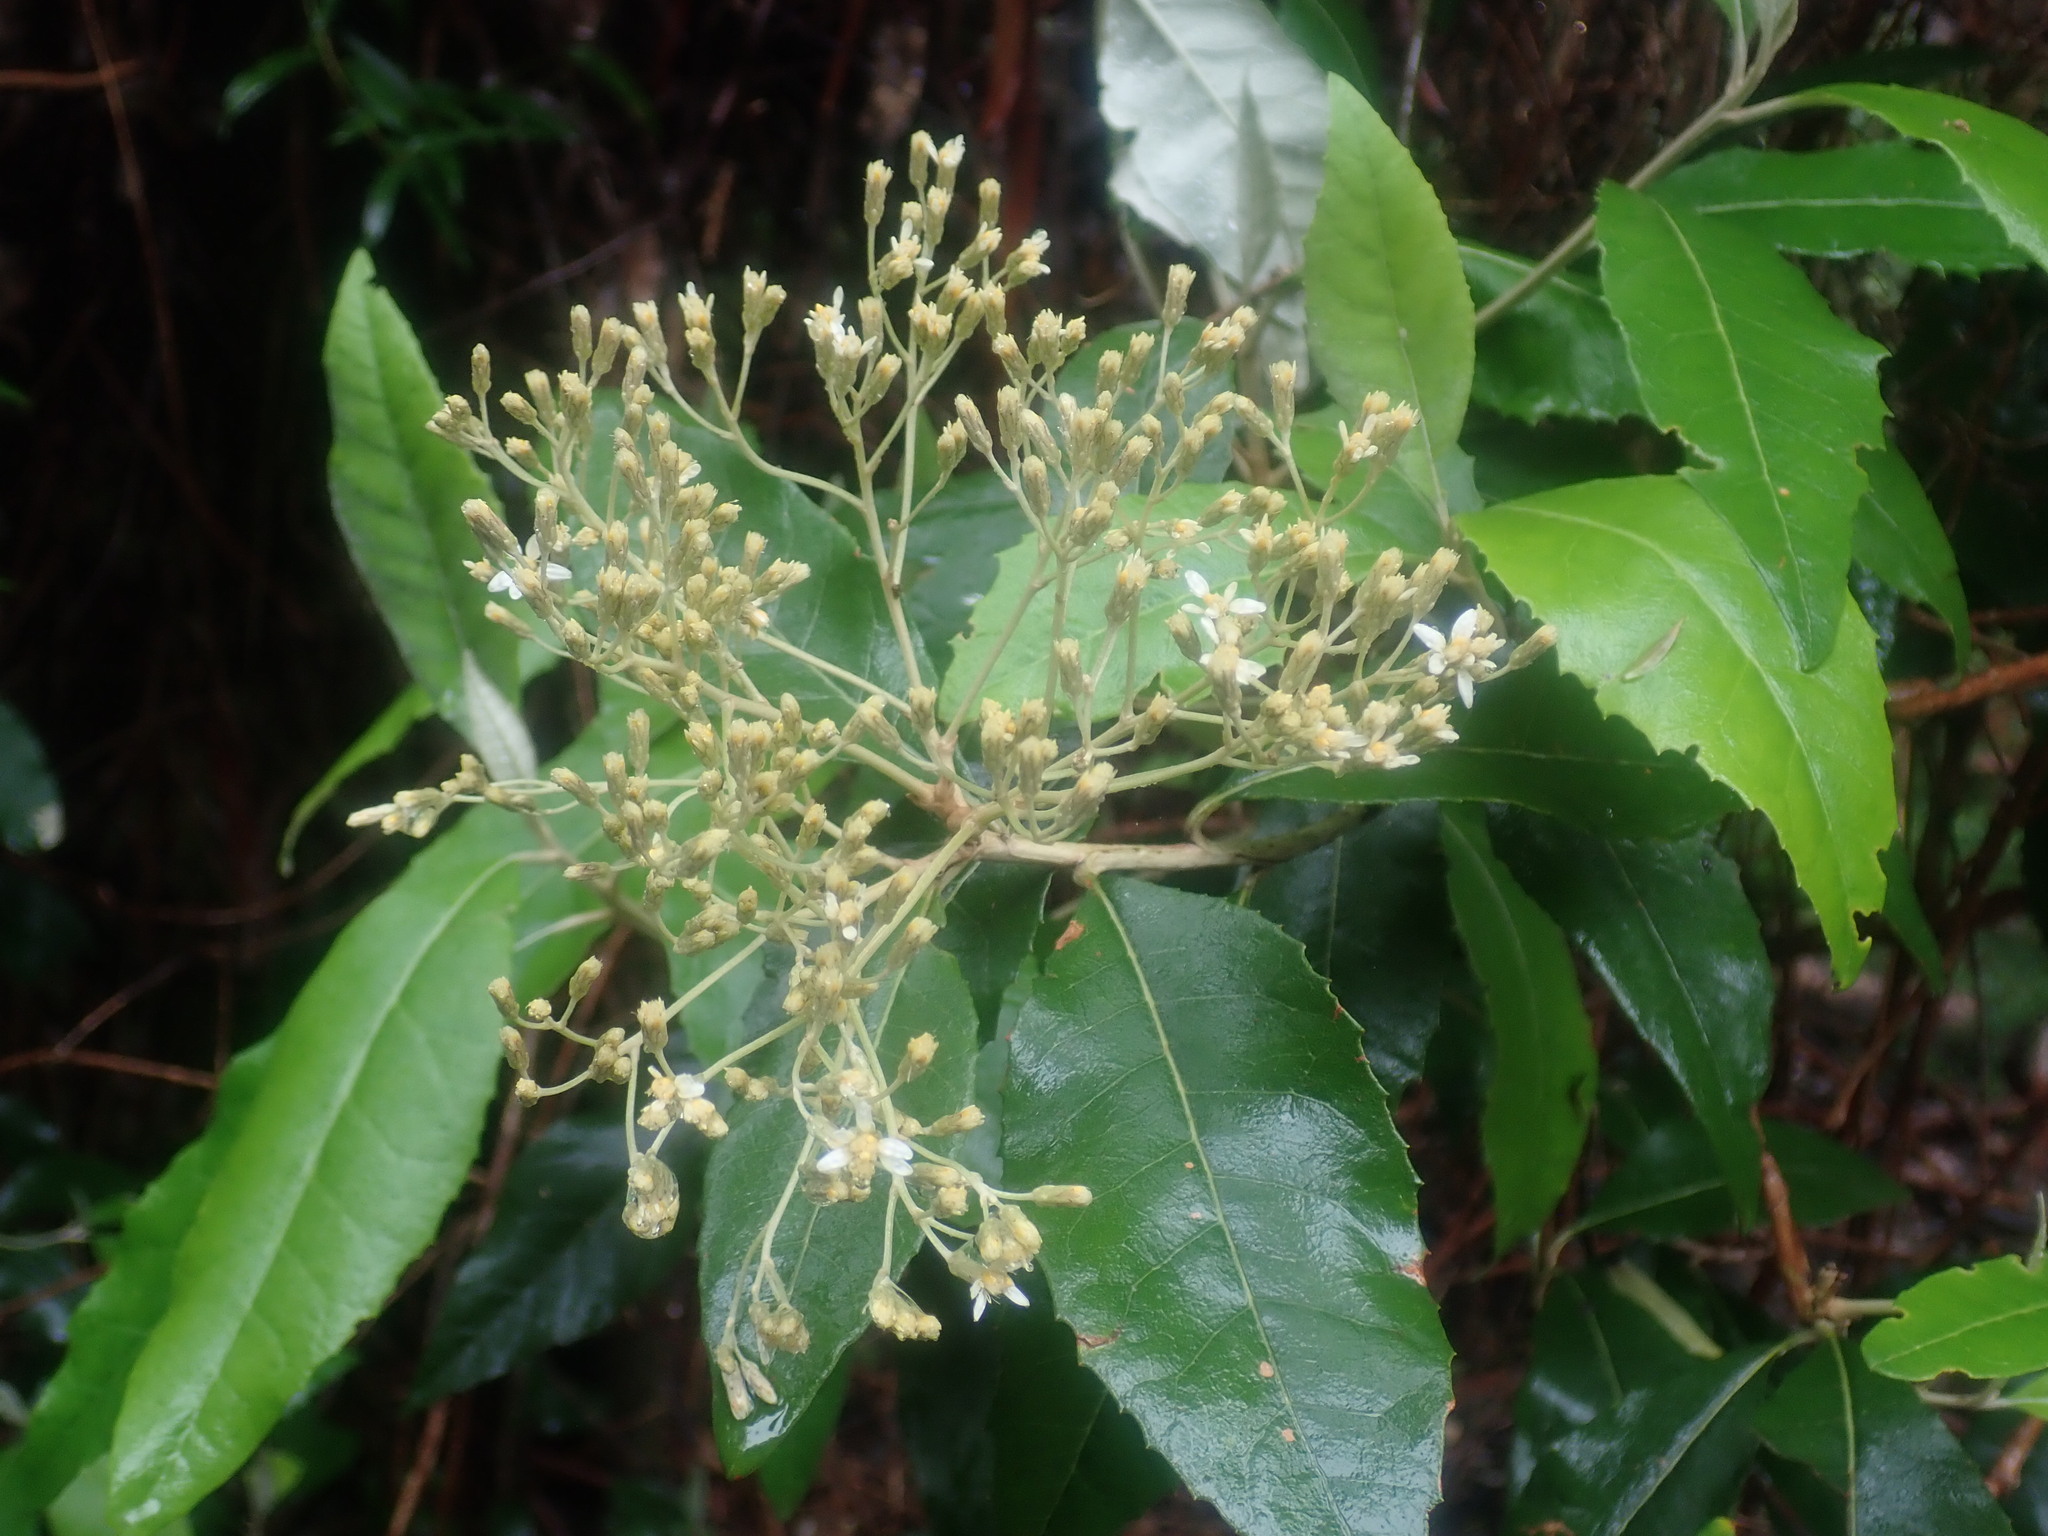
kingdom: Plantae
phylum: Tracheophyta
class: Magnoliopsida
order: Asterales
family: Asteraceae
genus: Olearia
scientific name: Olearia argophylla
